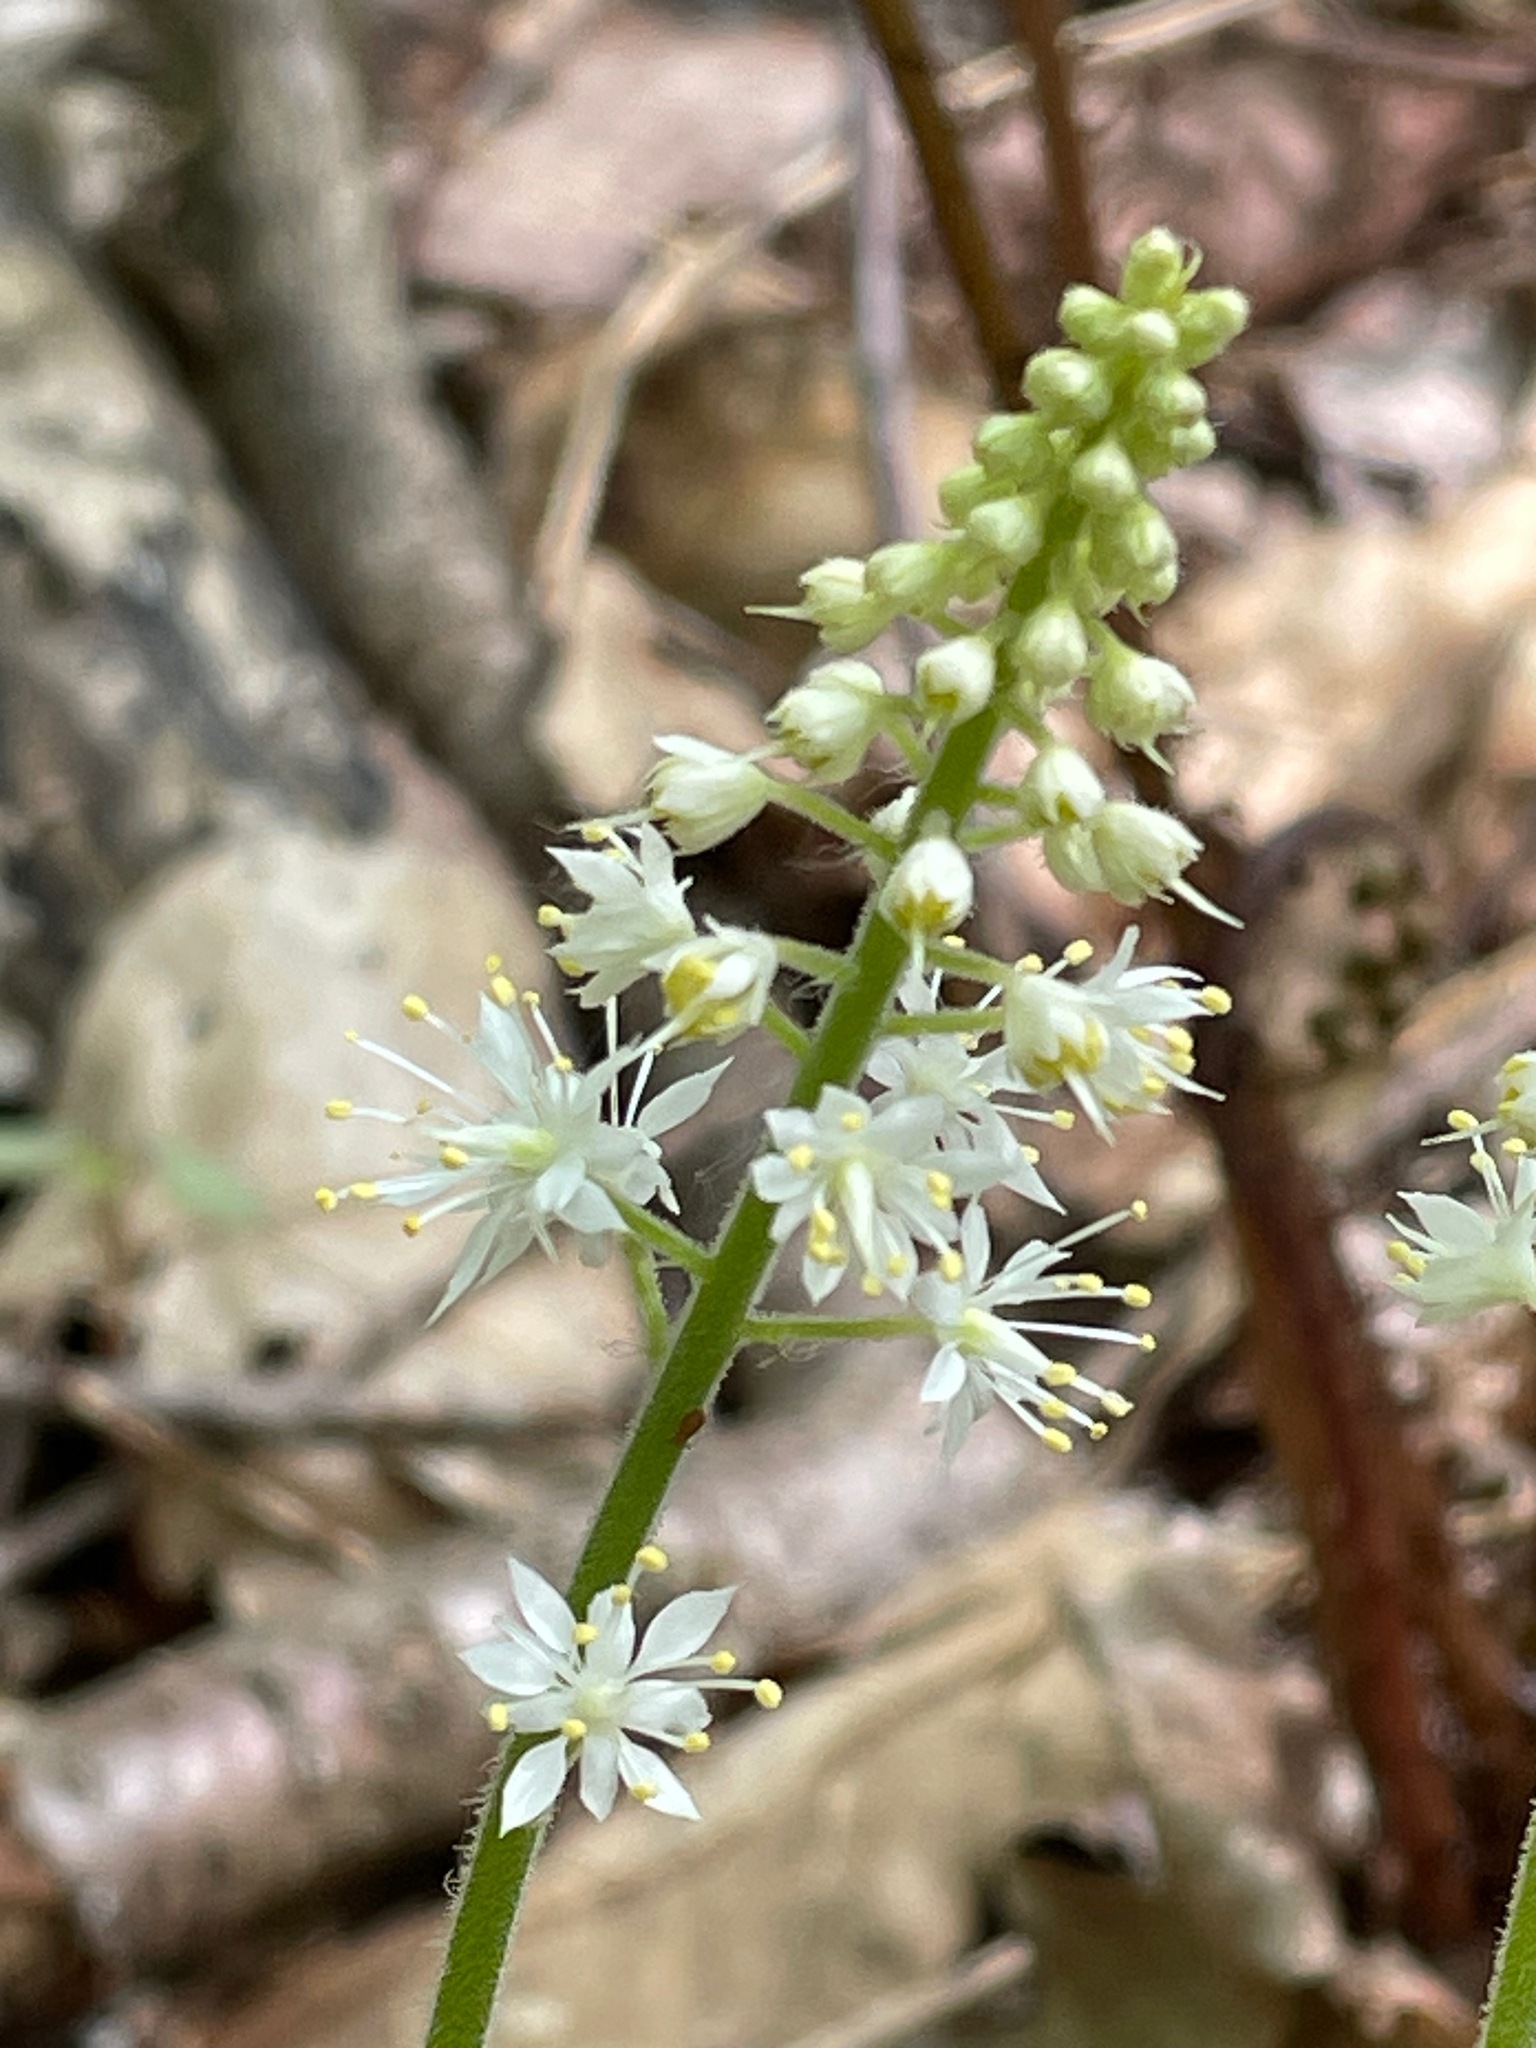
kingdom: Plantae
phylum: Tracheophyta
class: Magnoliopsida
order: Saxifragales
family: Saxifragaceae
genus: Tiarella
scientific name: Tiarella stolonifera
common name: Stoloniferous foamflower
